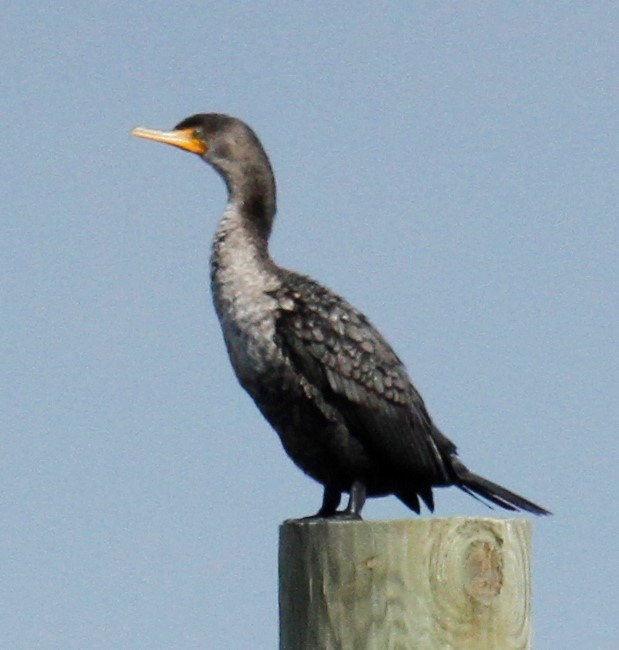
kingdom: Animalia
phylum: Chordata
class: Aves
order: Suliformes
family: Phalacrocoracidae
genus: Phalacrocorax
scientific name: Phalacrocorax auritus
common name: Double-crested cormorant
